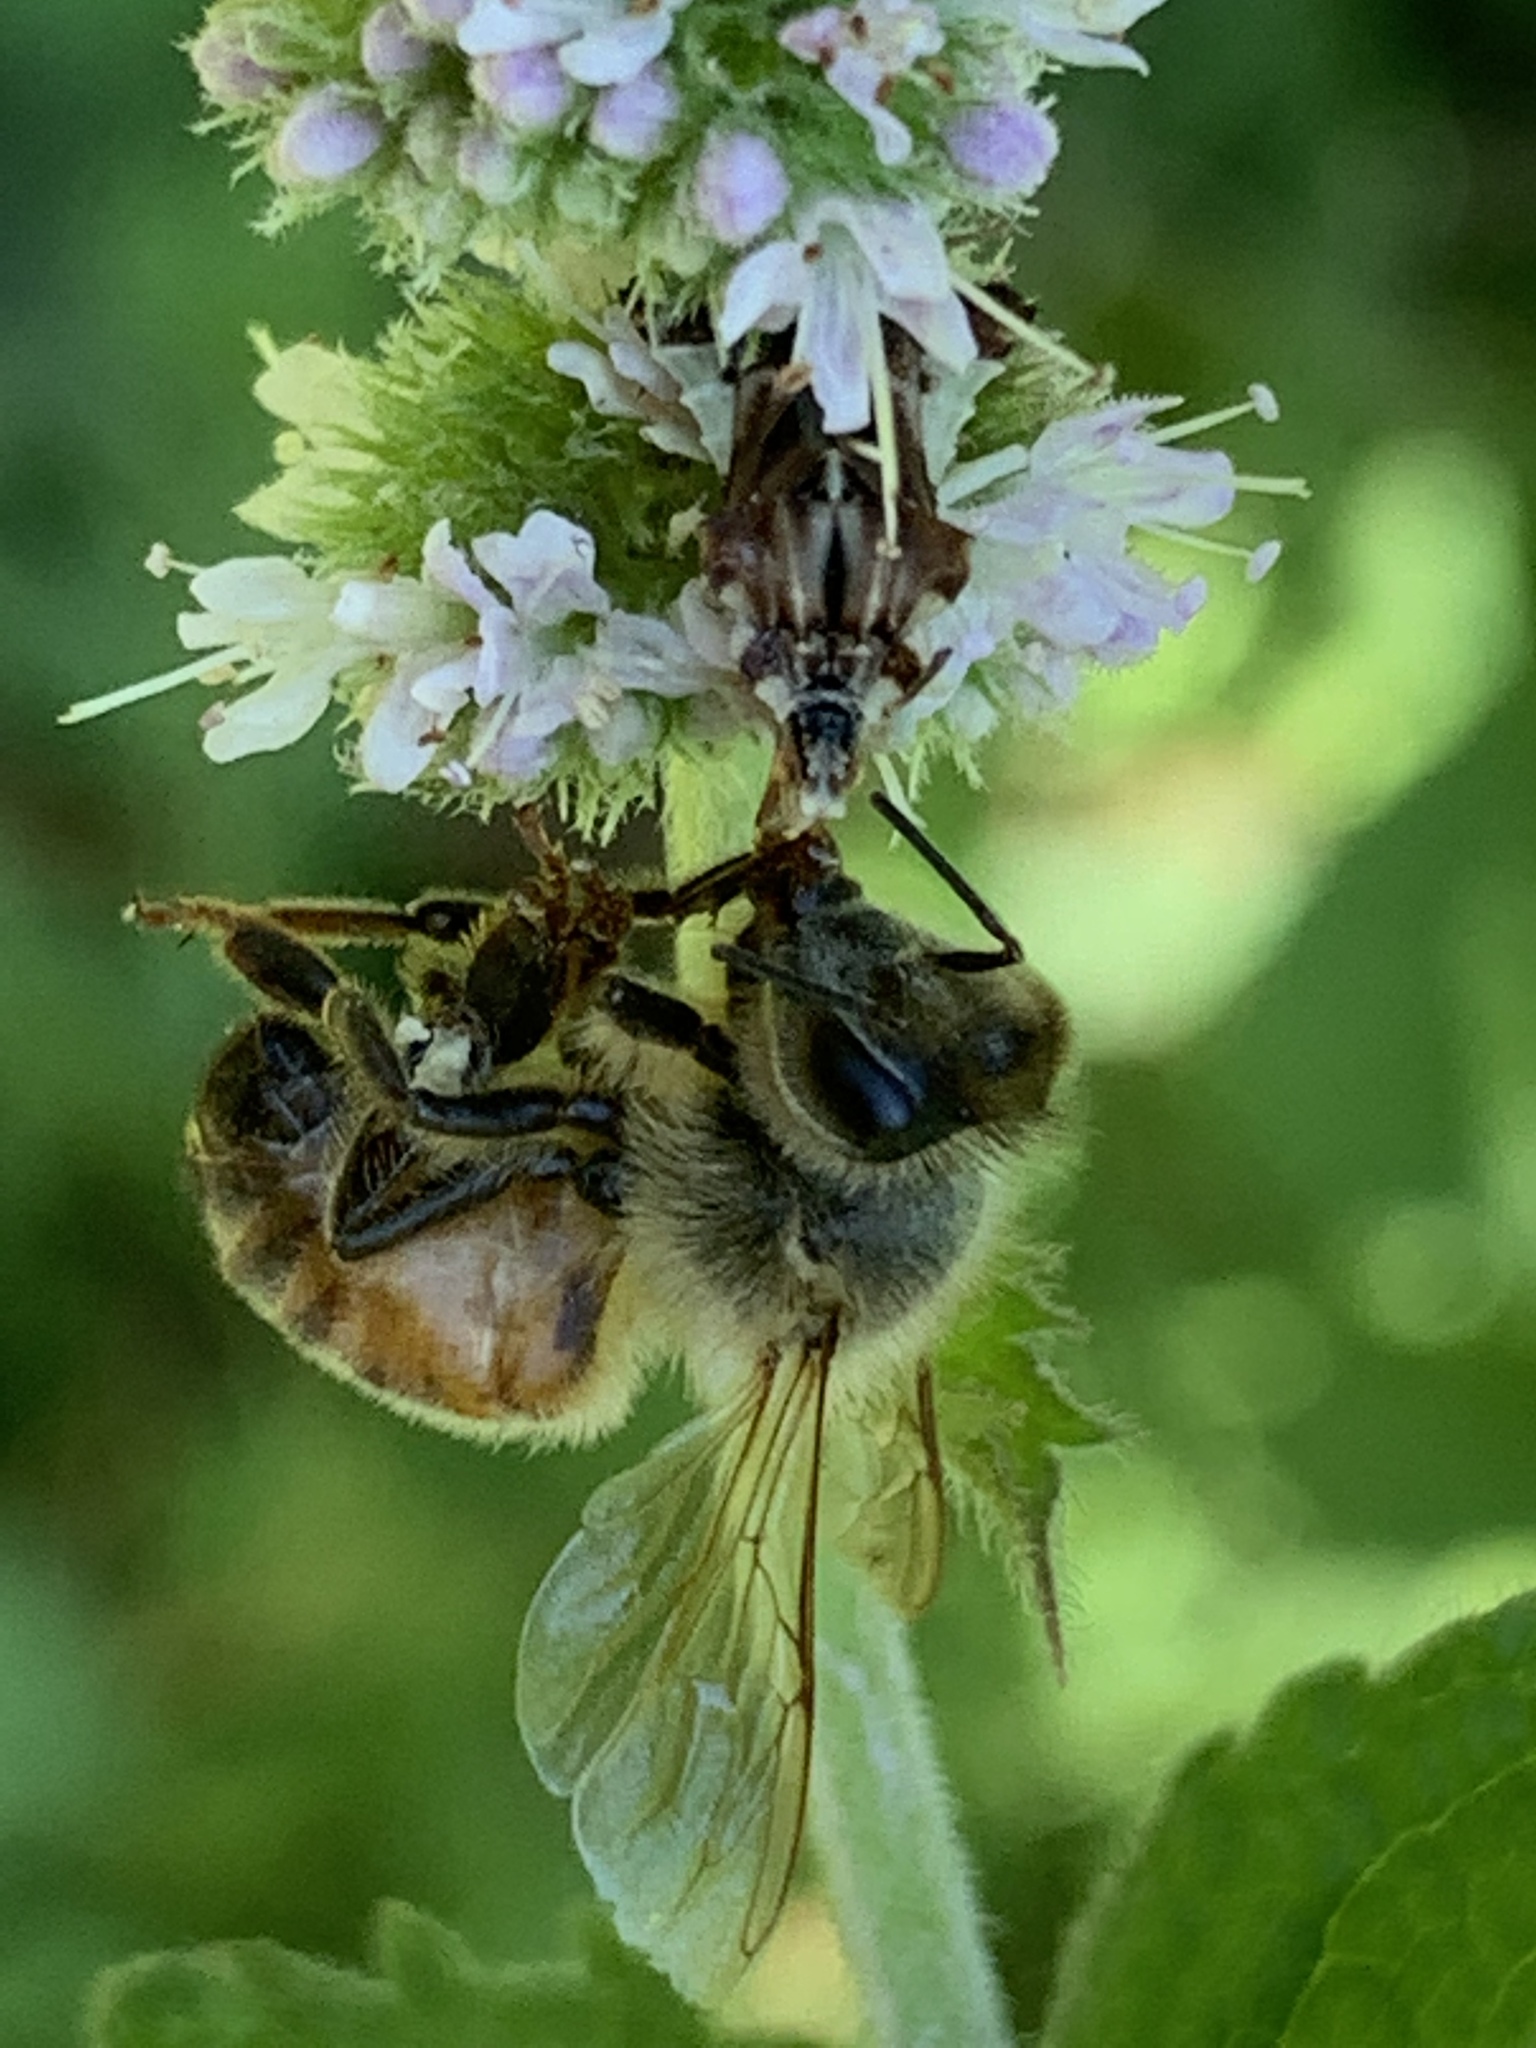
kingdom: Animalia
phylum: Arthropoda
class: Insecta
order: Hemiptera
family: Reduviidae
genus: Phymata
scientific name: Phymata fasciata
